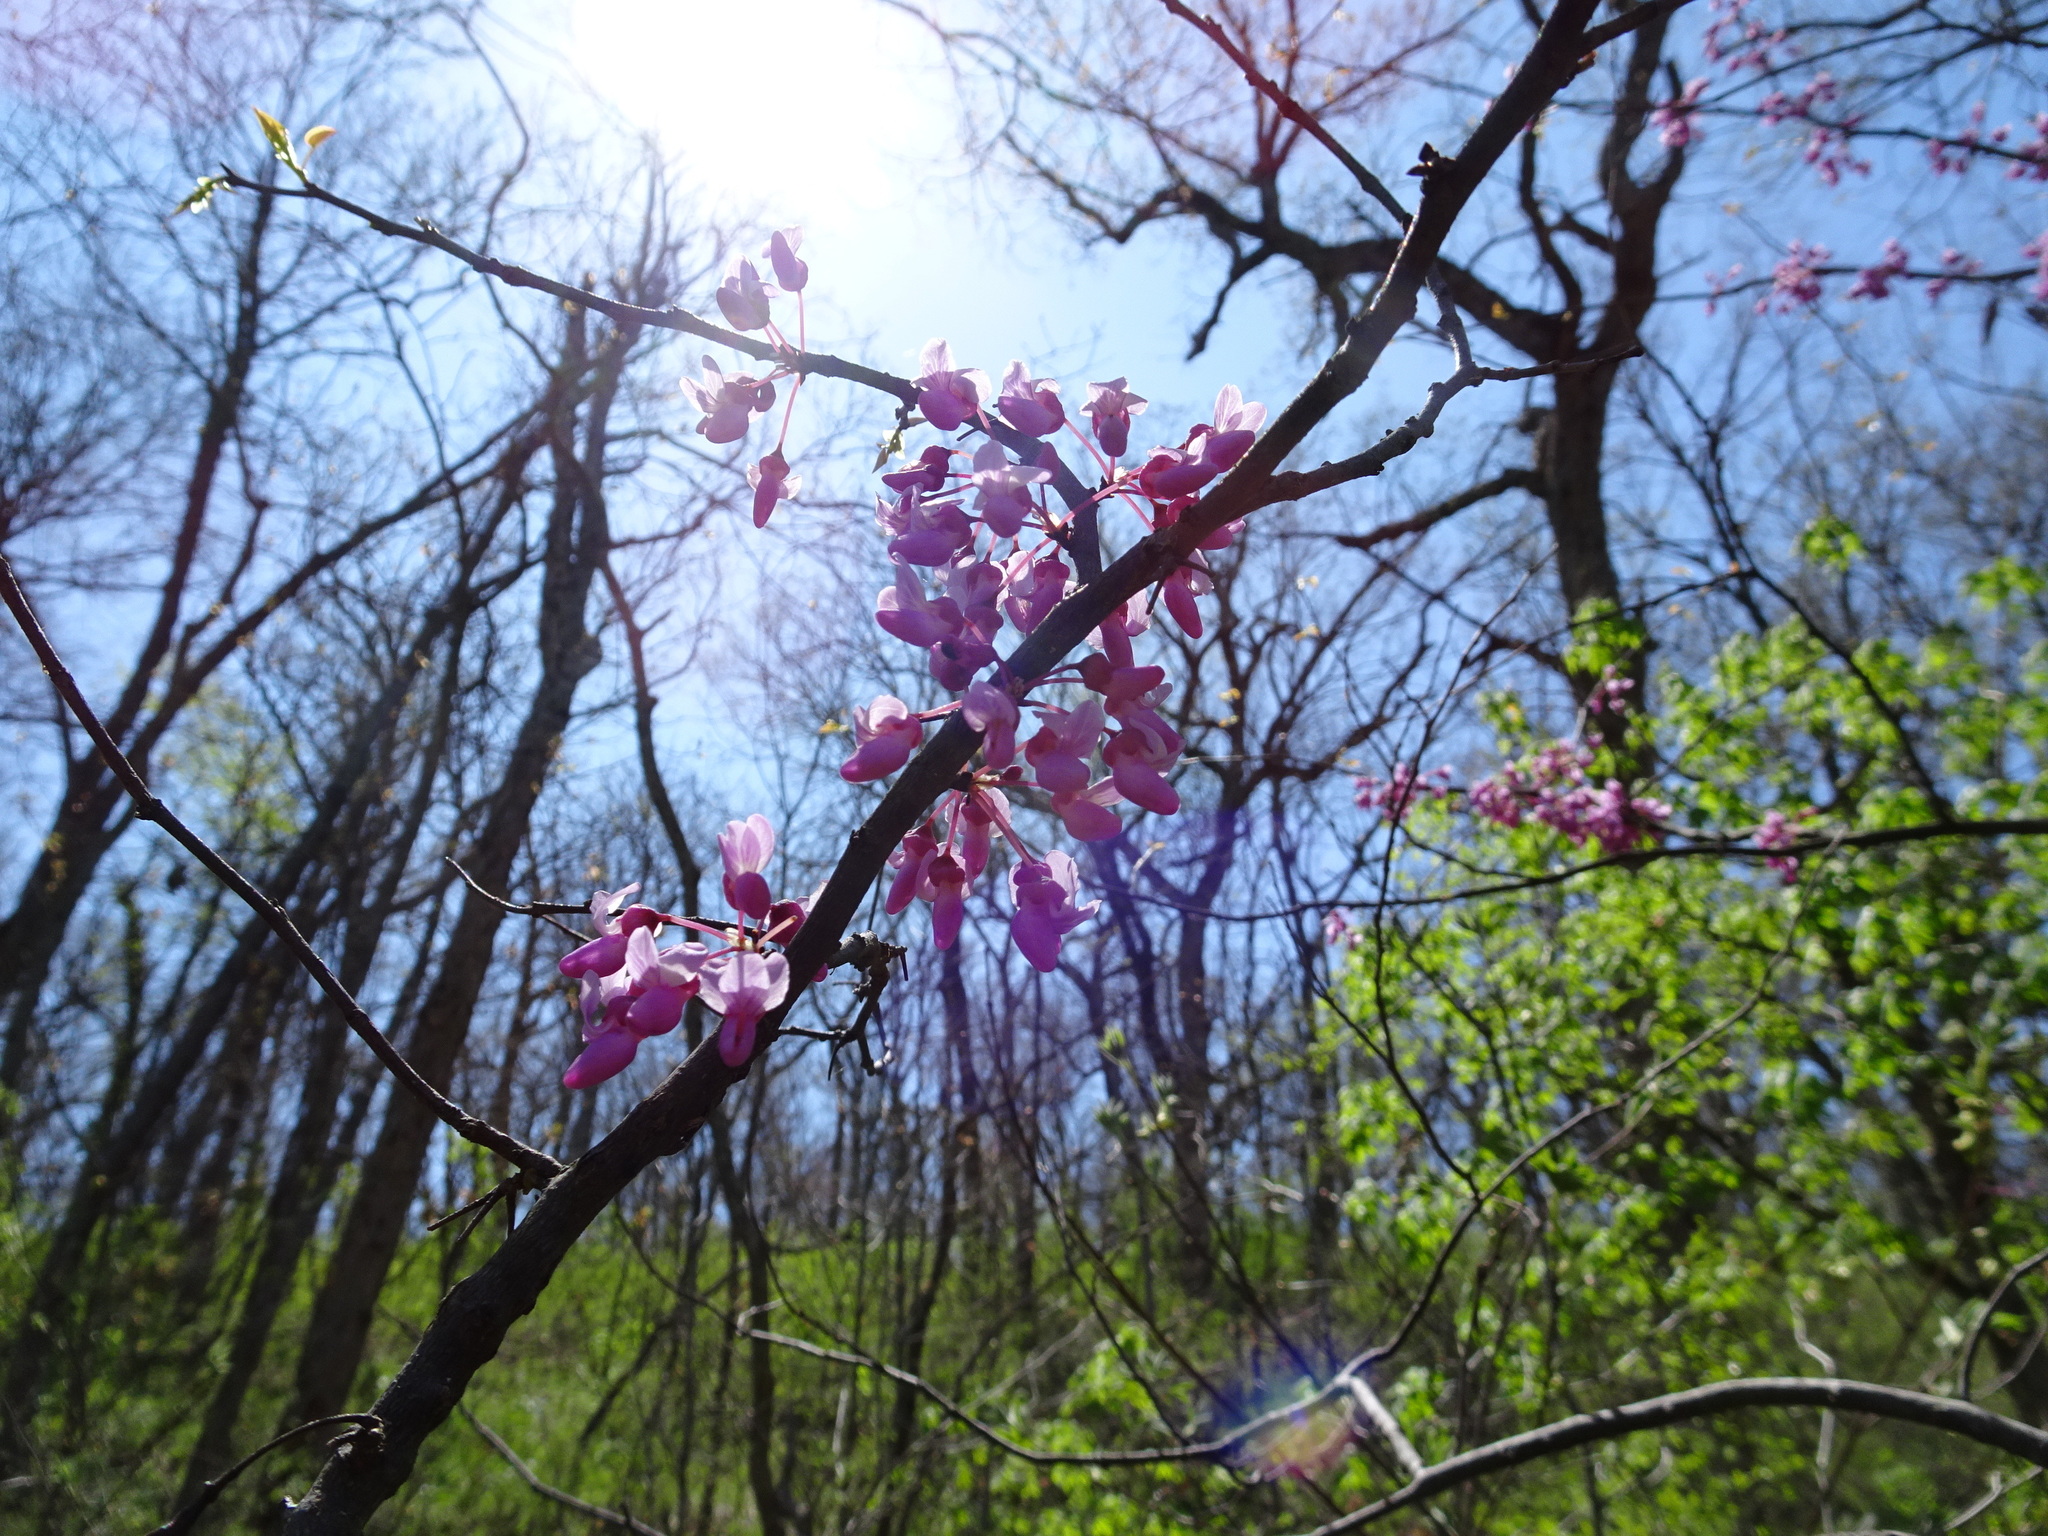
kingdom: Plantae
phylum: Tracheophyta
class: Magnoliopsida
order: Fabales
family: Fabaceae
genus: Cercis
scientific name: Cercis canadensis
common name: Eastern redbud
